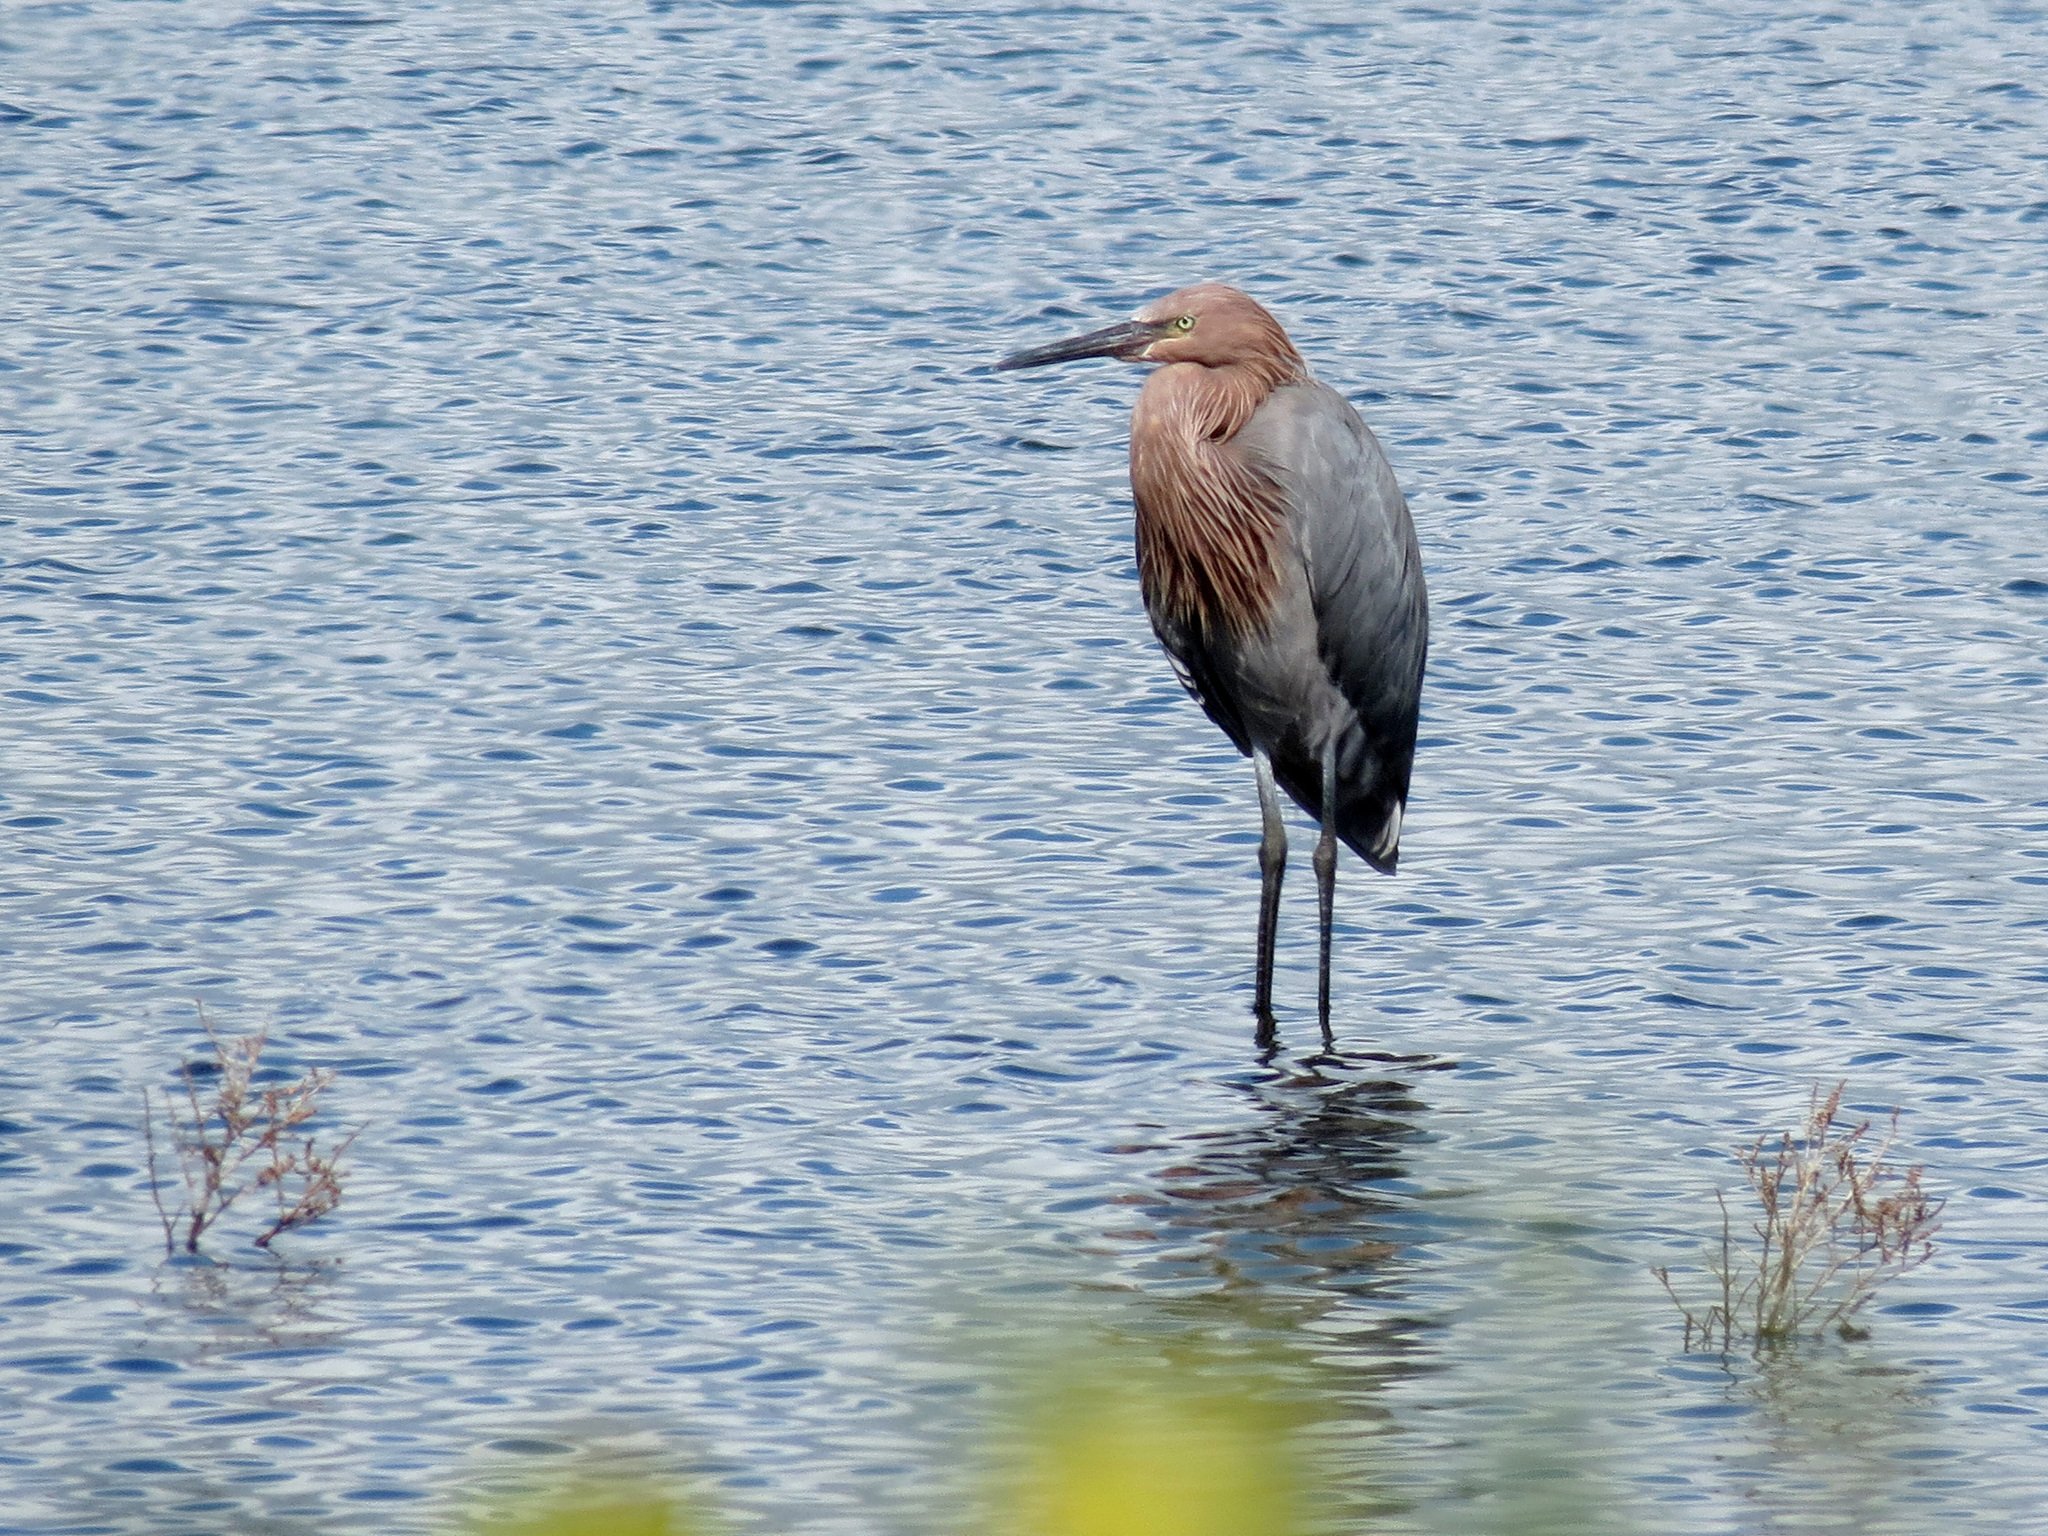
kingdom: Animalia
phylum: Chordata
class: Aves
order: Pelecaniformes
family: Ardeidae
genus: Egretta
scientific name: Egretta rufescens
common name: Reddish egret
